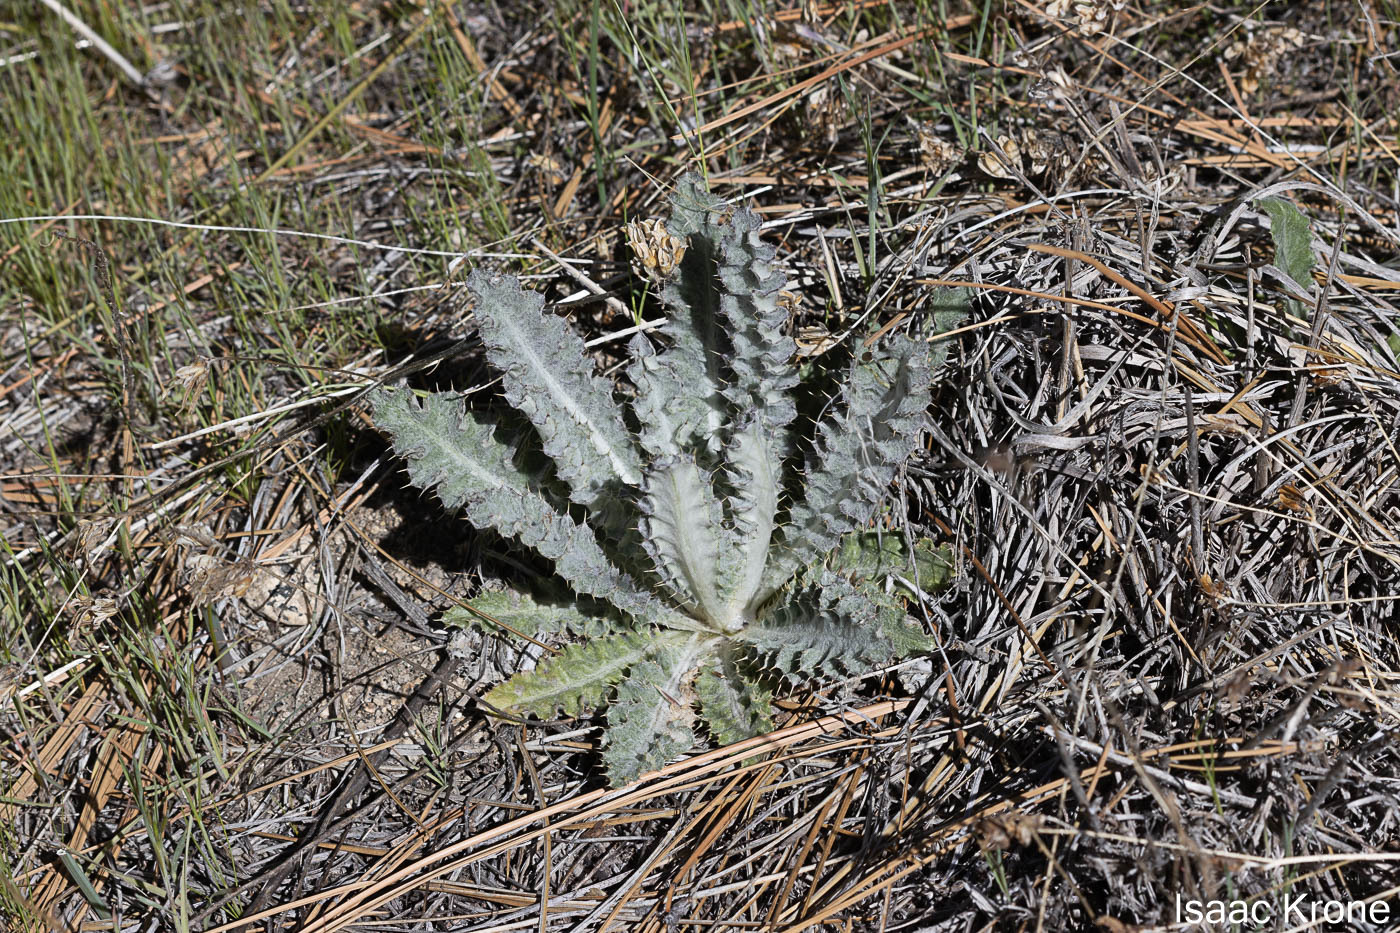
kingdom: Plantae
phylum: Tracheophyta
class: Magnoliopsida
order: Asterales
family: Asteraceae
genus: Cirsium
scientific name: Cirsium occidentale
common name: Western thistle
